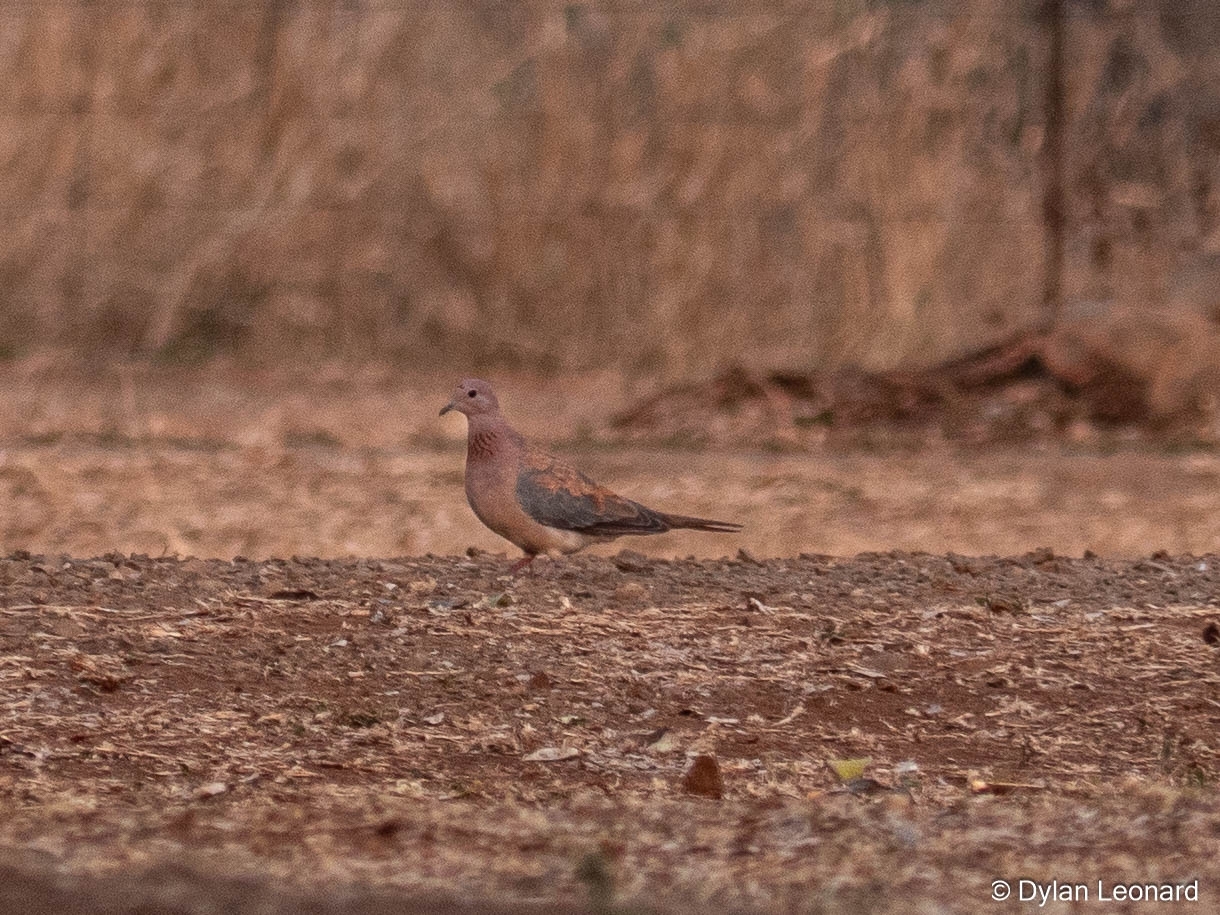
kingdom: Animalia
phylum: Chordata
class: Aves
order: Columbiformes
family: Columbidae
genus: Spilopelia
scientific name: Spilopelia senegalensis
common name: Laughing dove
